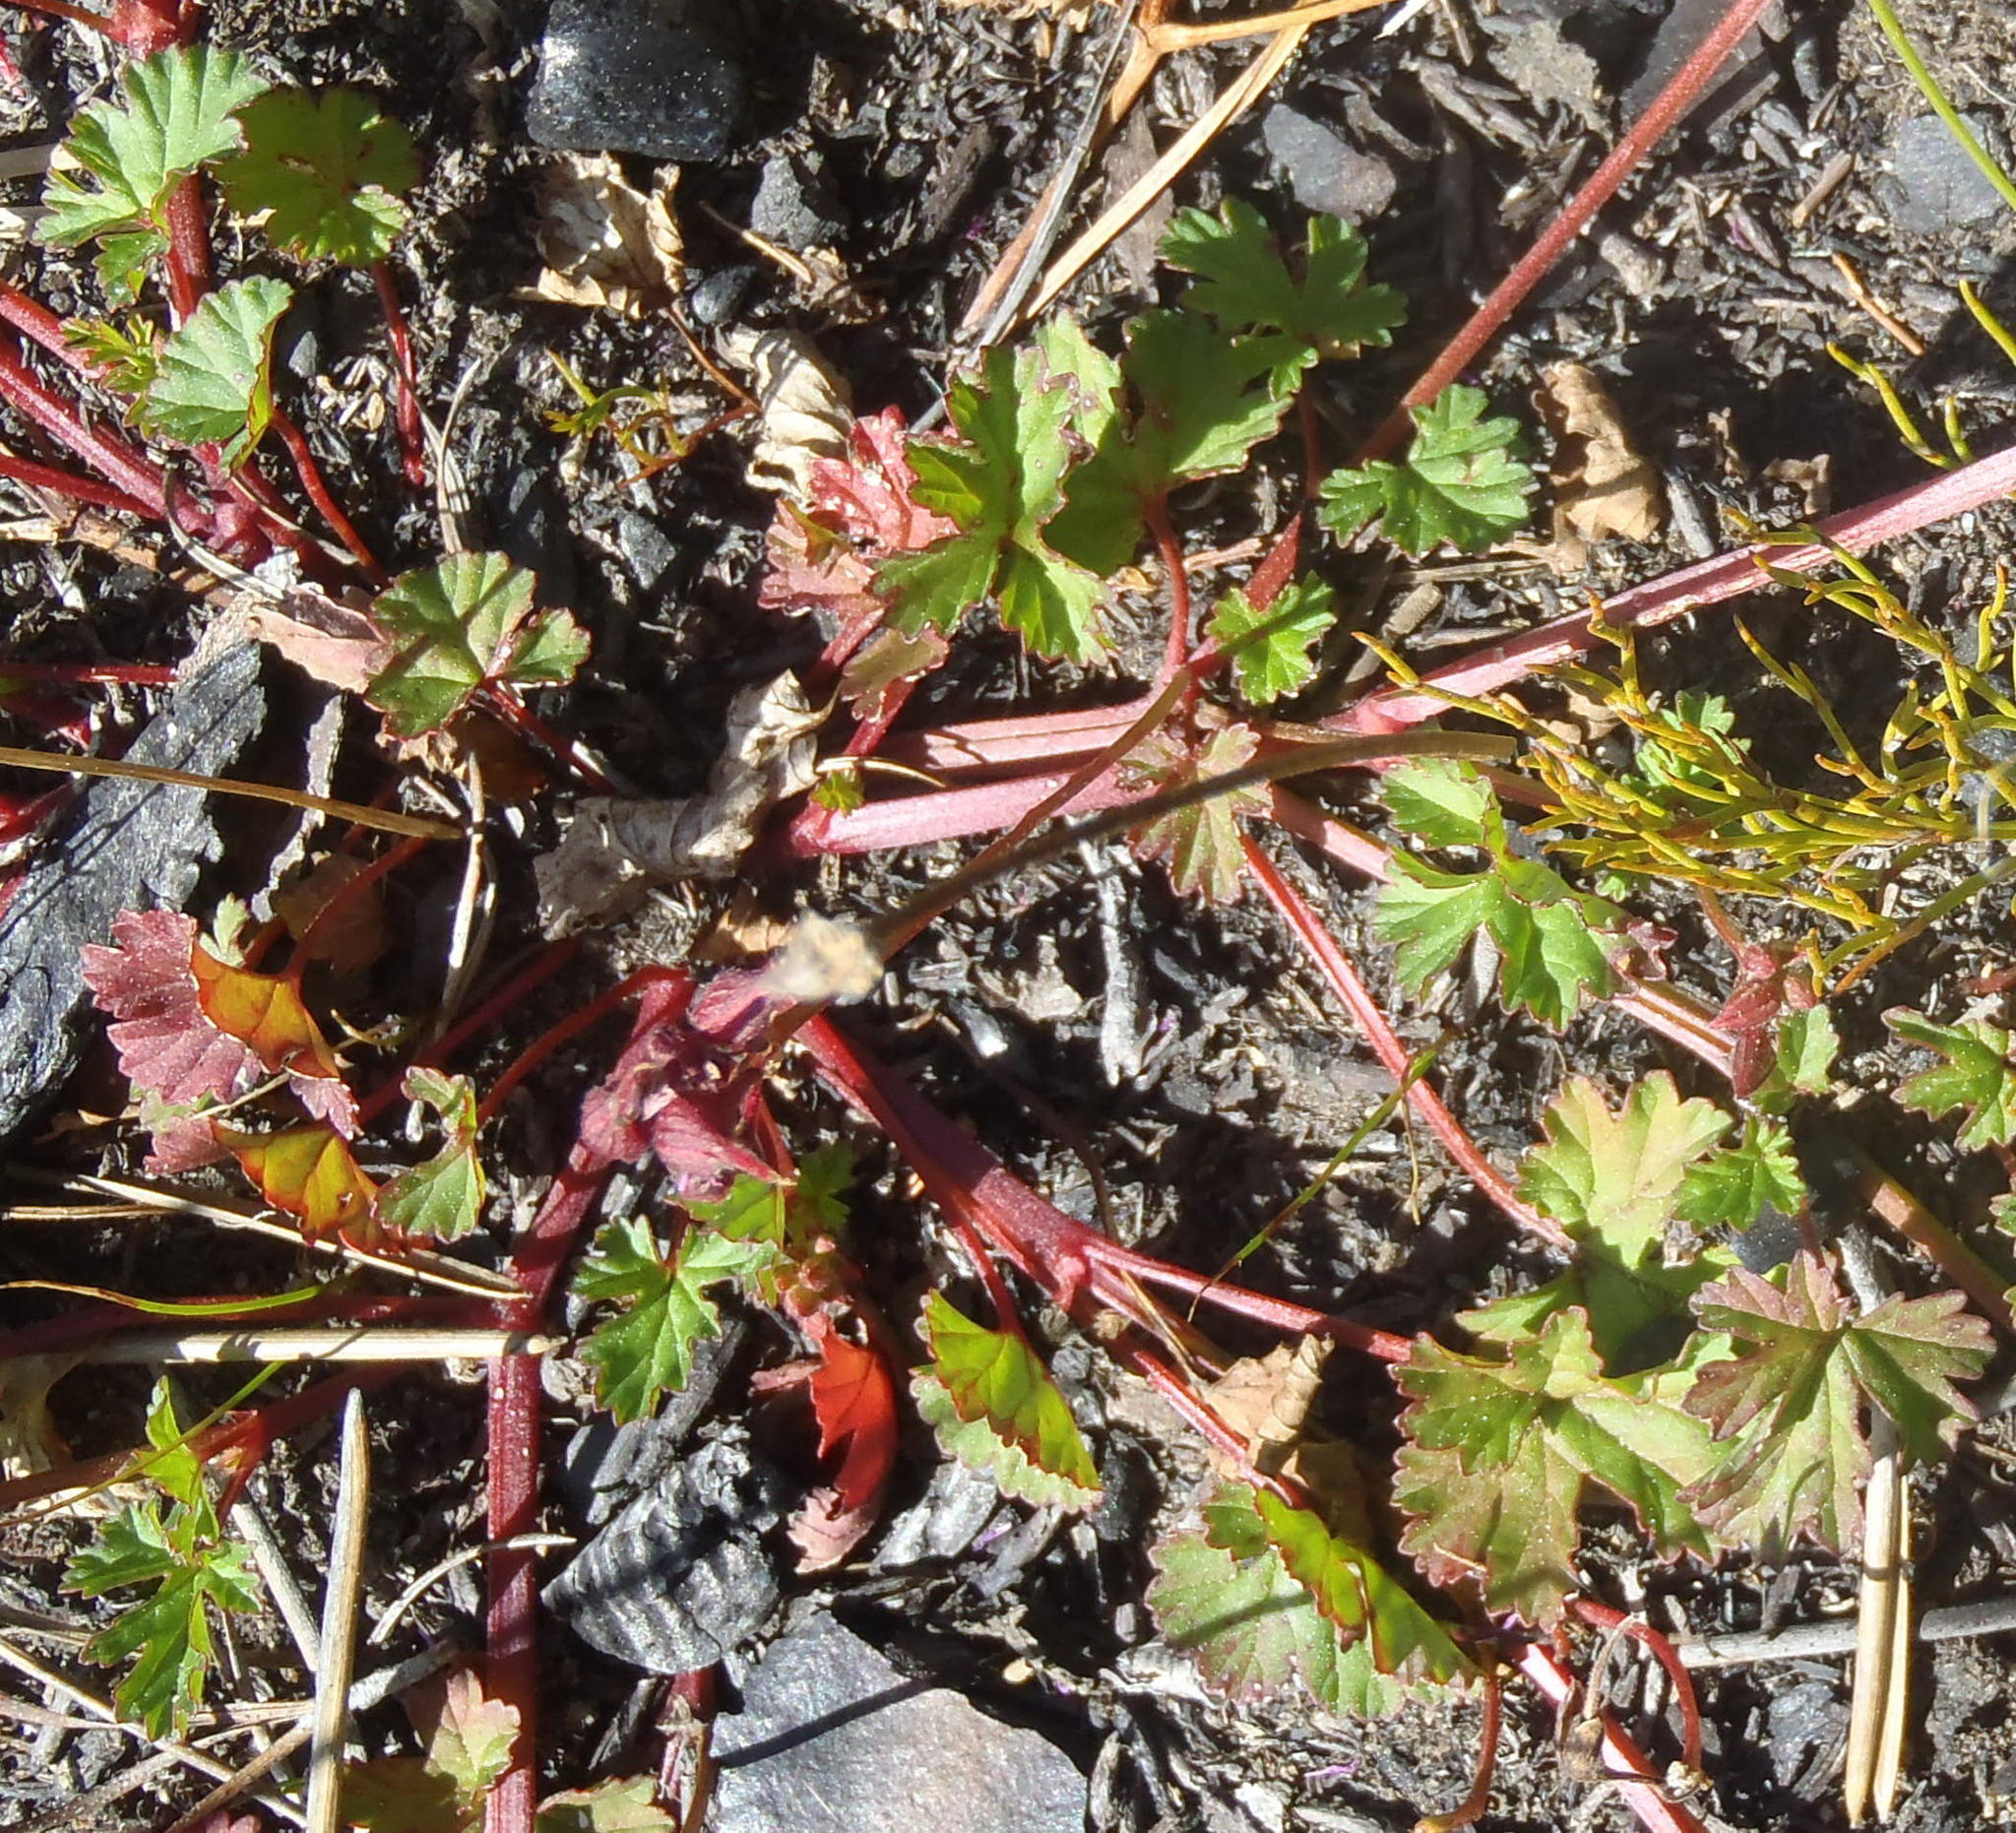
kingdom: Plantae
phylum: Tracheophyta
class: Magnoliopsida
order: Geraniales
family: Geraniaceae
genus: Pelargonium
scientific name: Pelargonium grossularioides
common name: Gooseberry geranium
